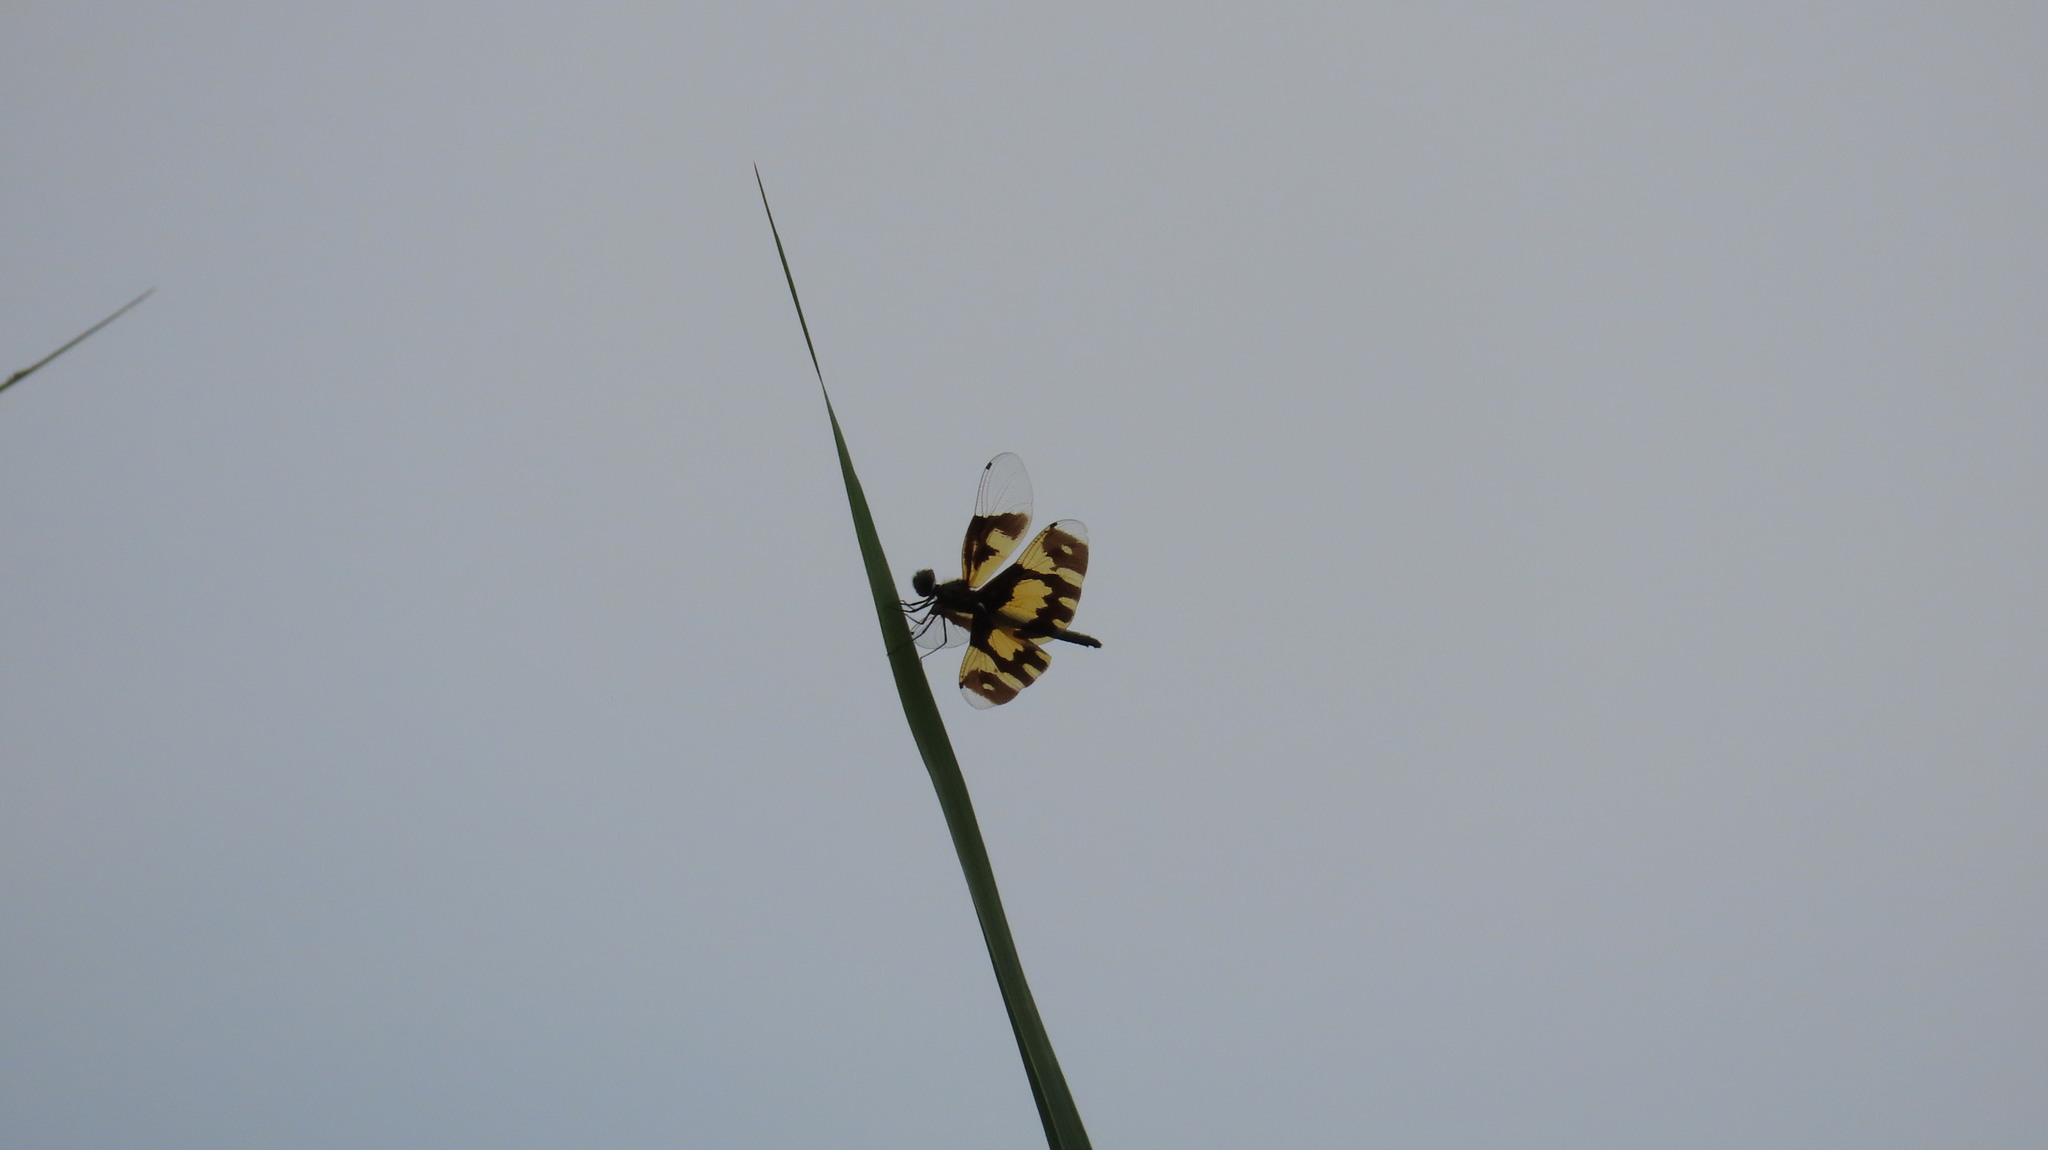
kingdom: Animalia
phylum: Arthropoda
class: Insecta
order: Odonata
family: Libellulidae
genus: Rhyothemis
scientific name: Rhyothemis variegata
